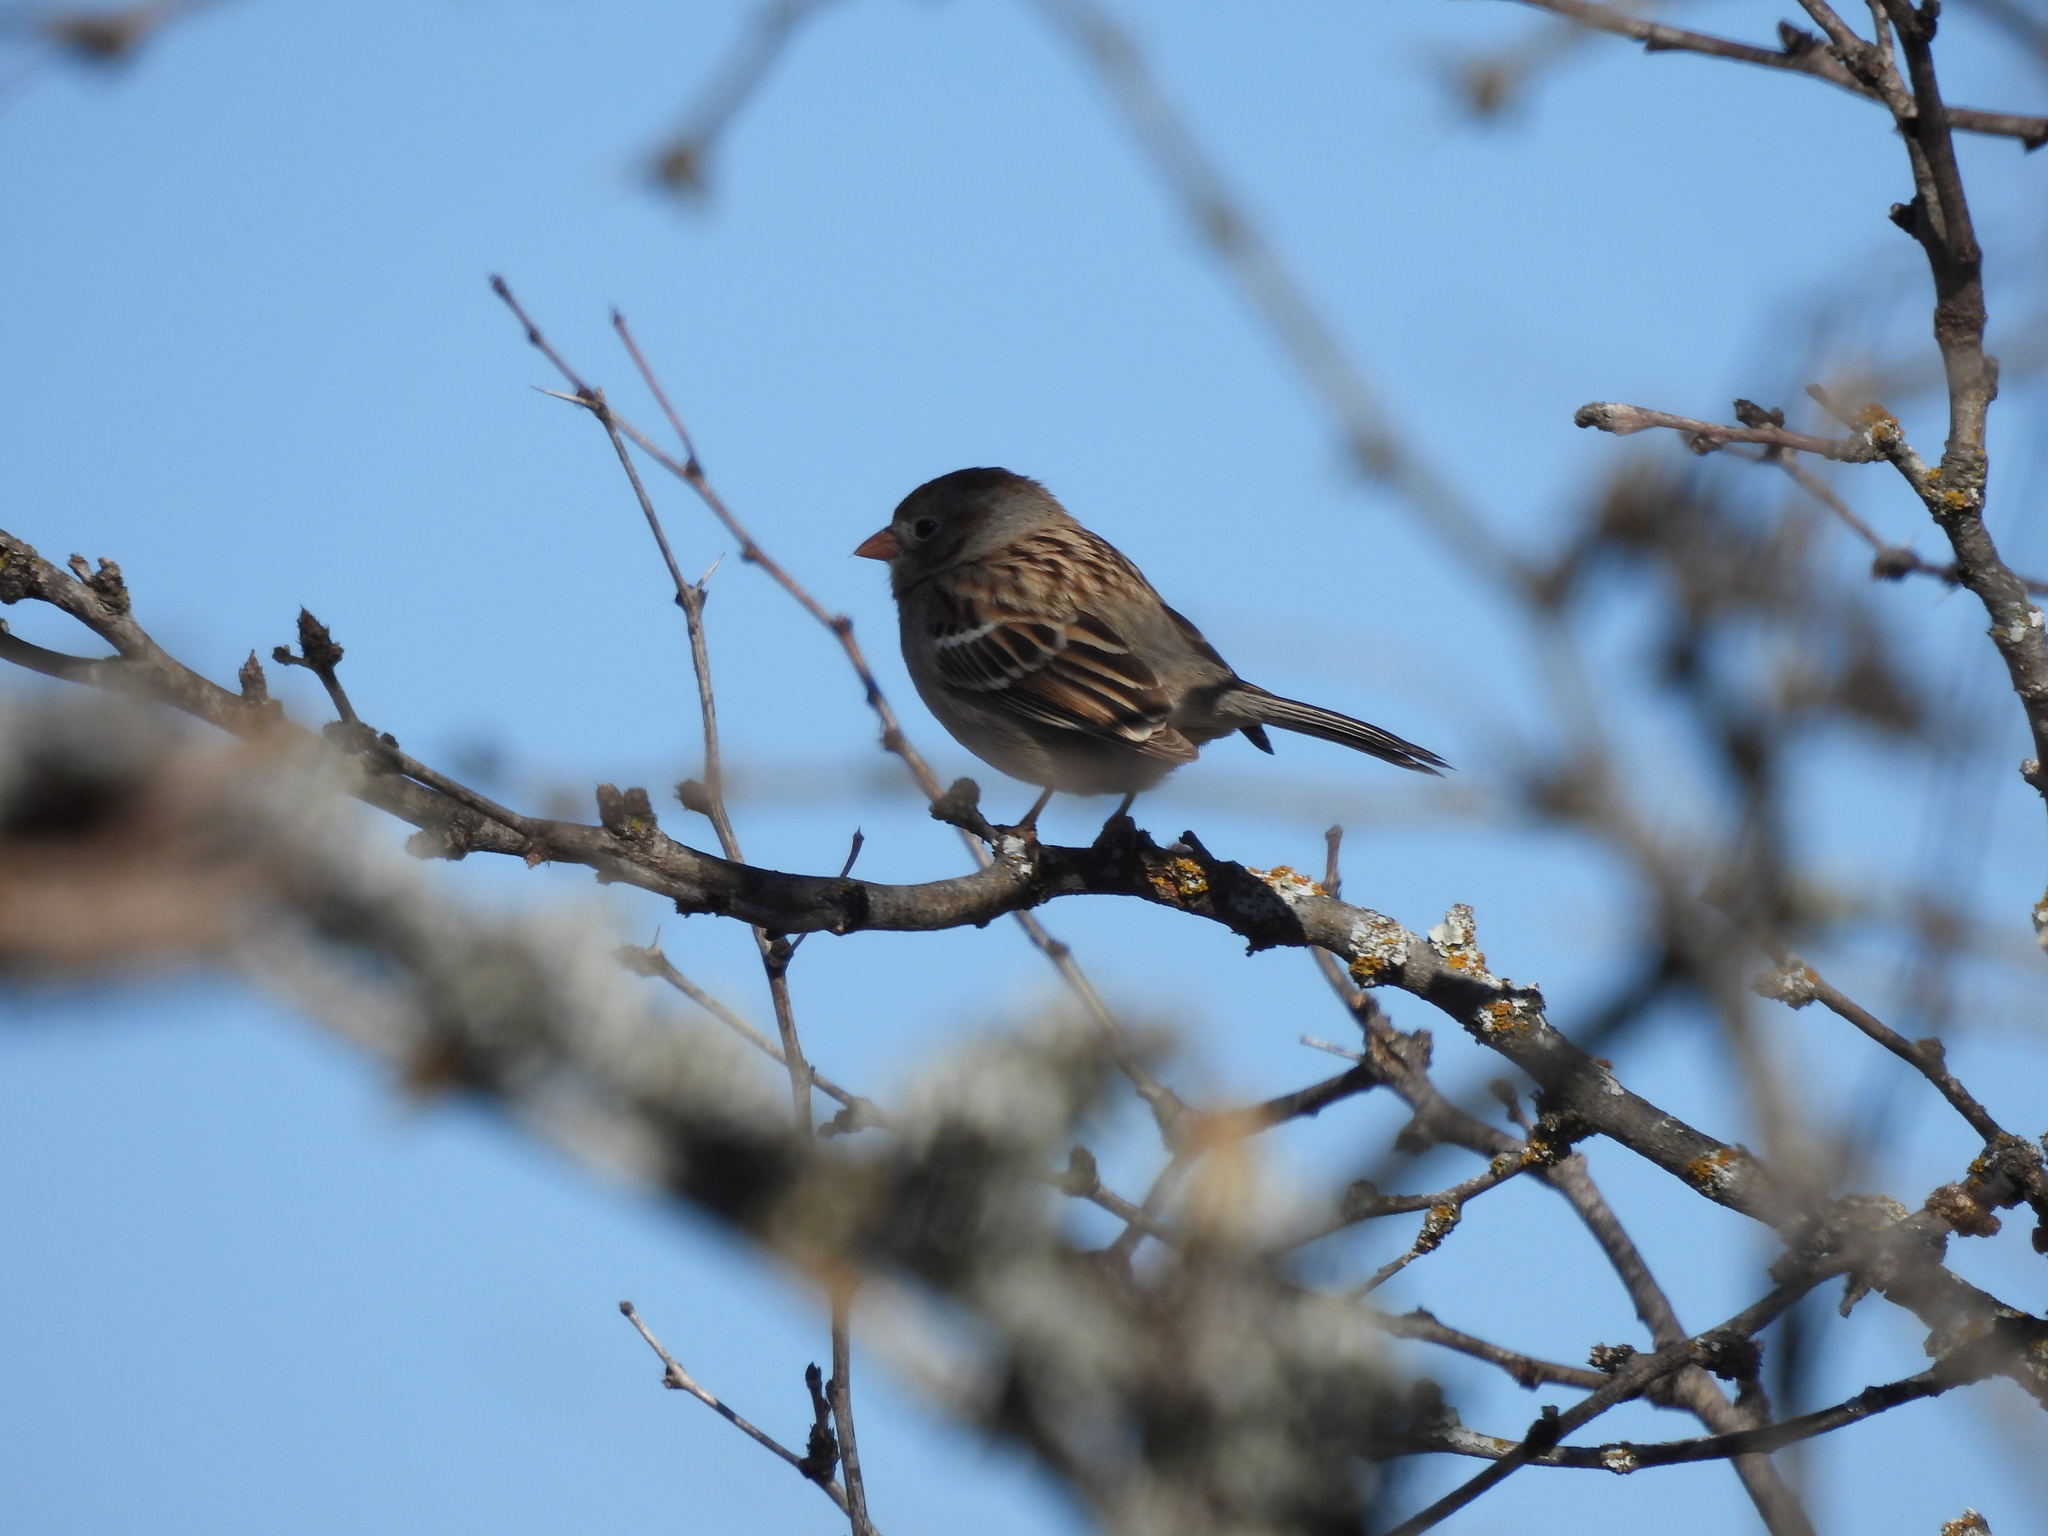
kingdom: Animalia
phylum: Chordata
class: Aves
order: Passeriformes
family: Passerellidae
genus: Spizella
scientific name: Spizella pusilla
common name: Field sparrow
